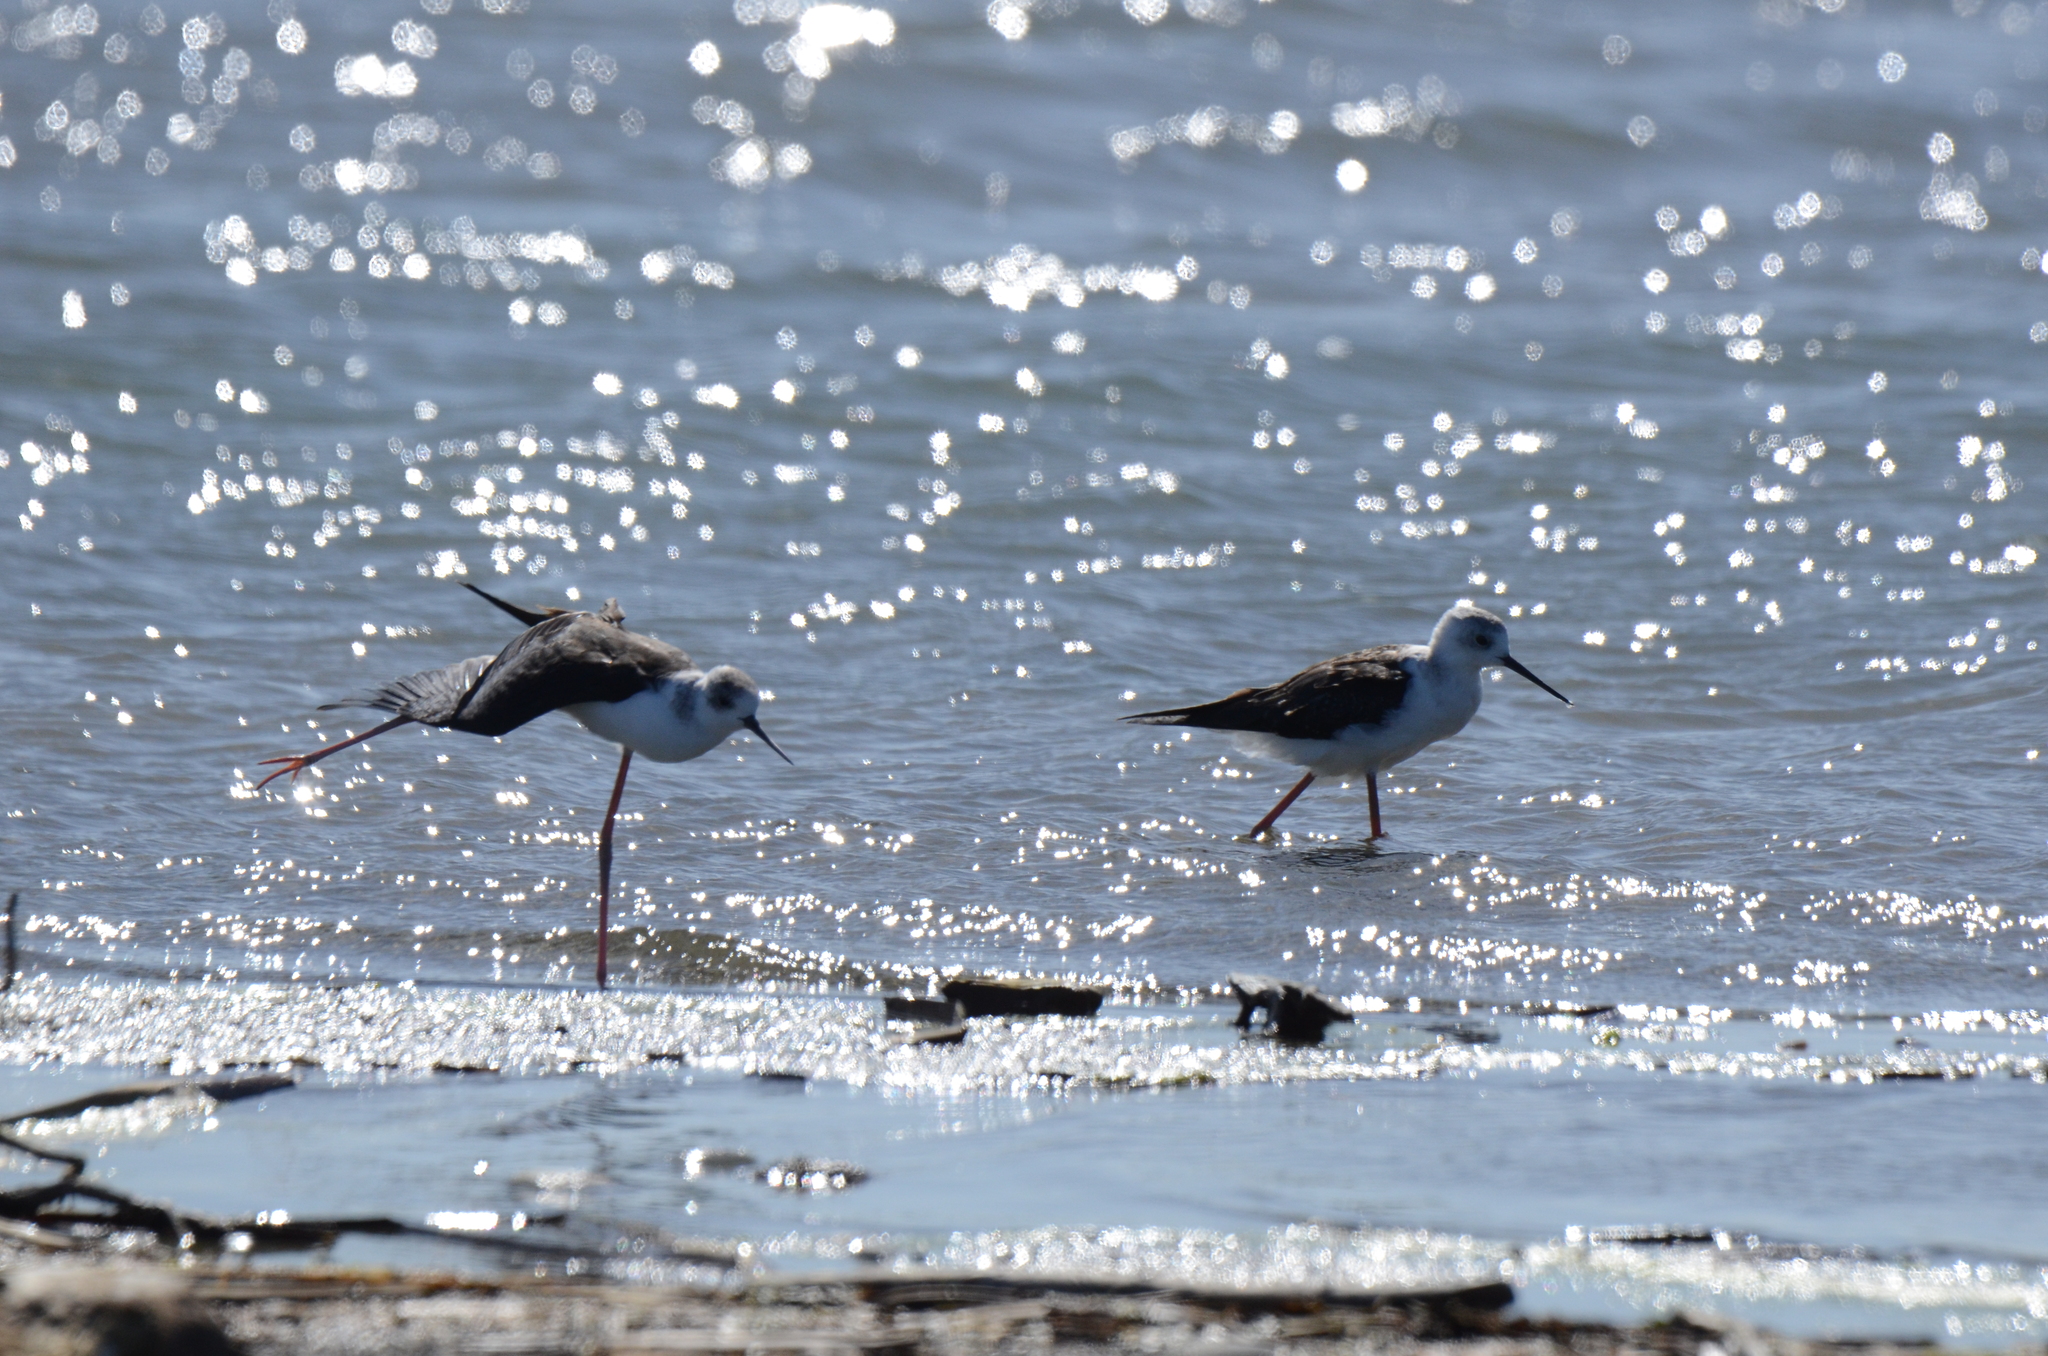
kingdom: Animalia
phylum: Chordata
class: Aves
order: Charadriiformes
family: Recurvirostridae
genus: Himantopus
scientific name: Himantopus leucocephalus
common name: White-headed stilt
